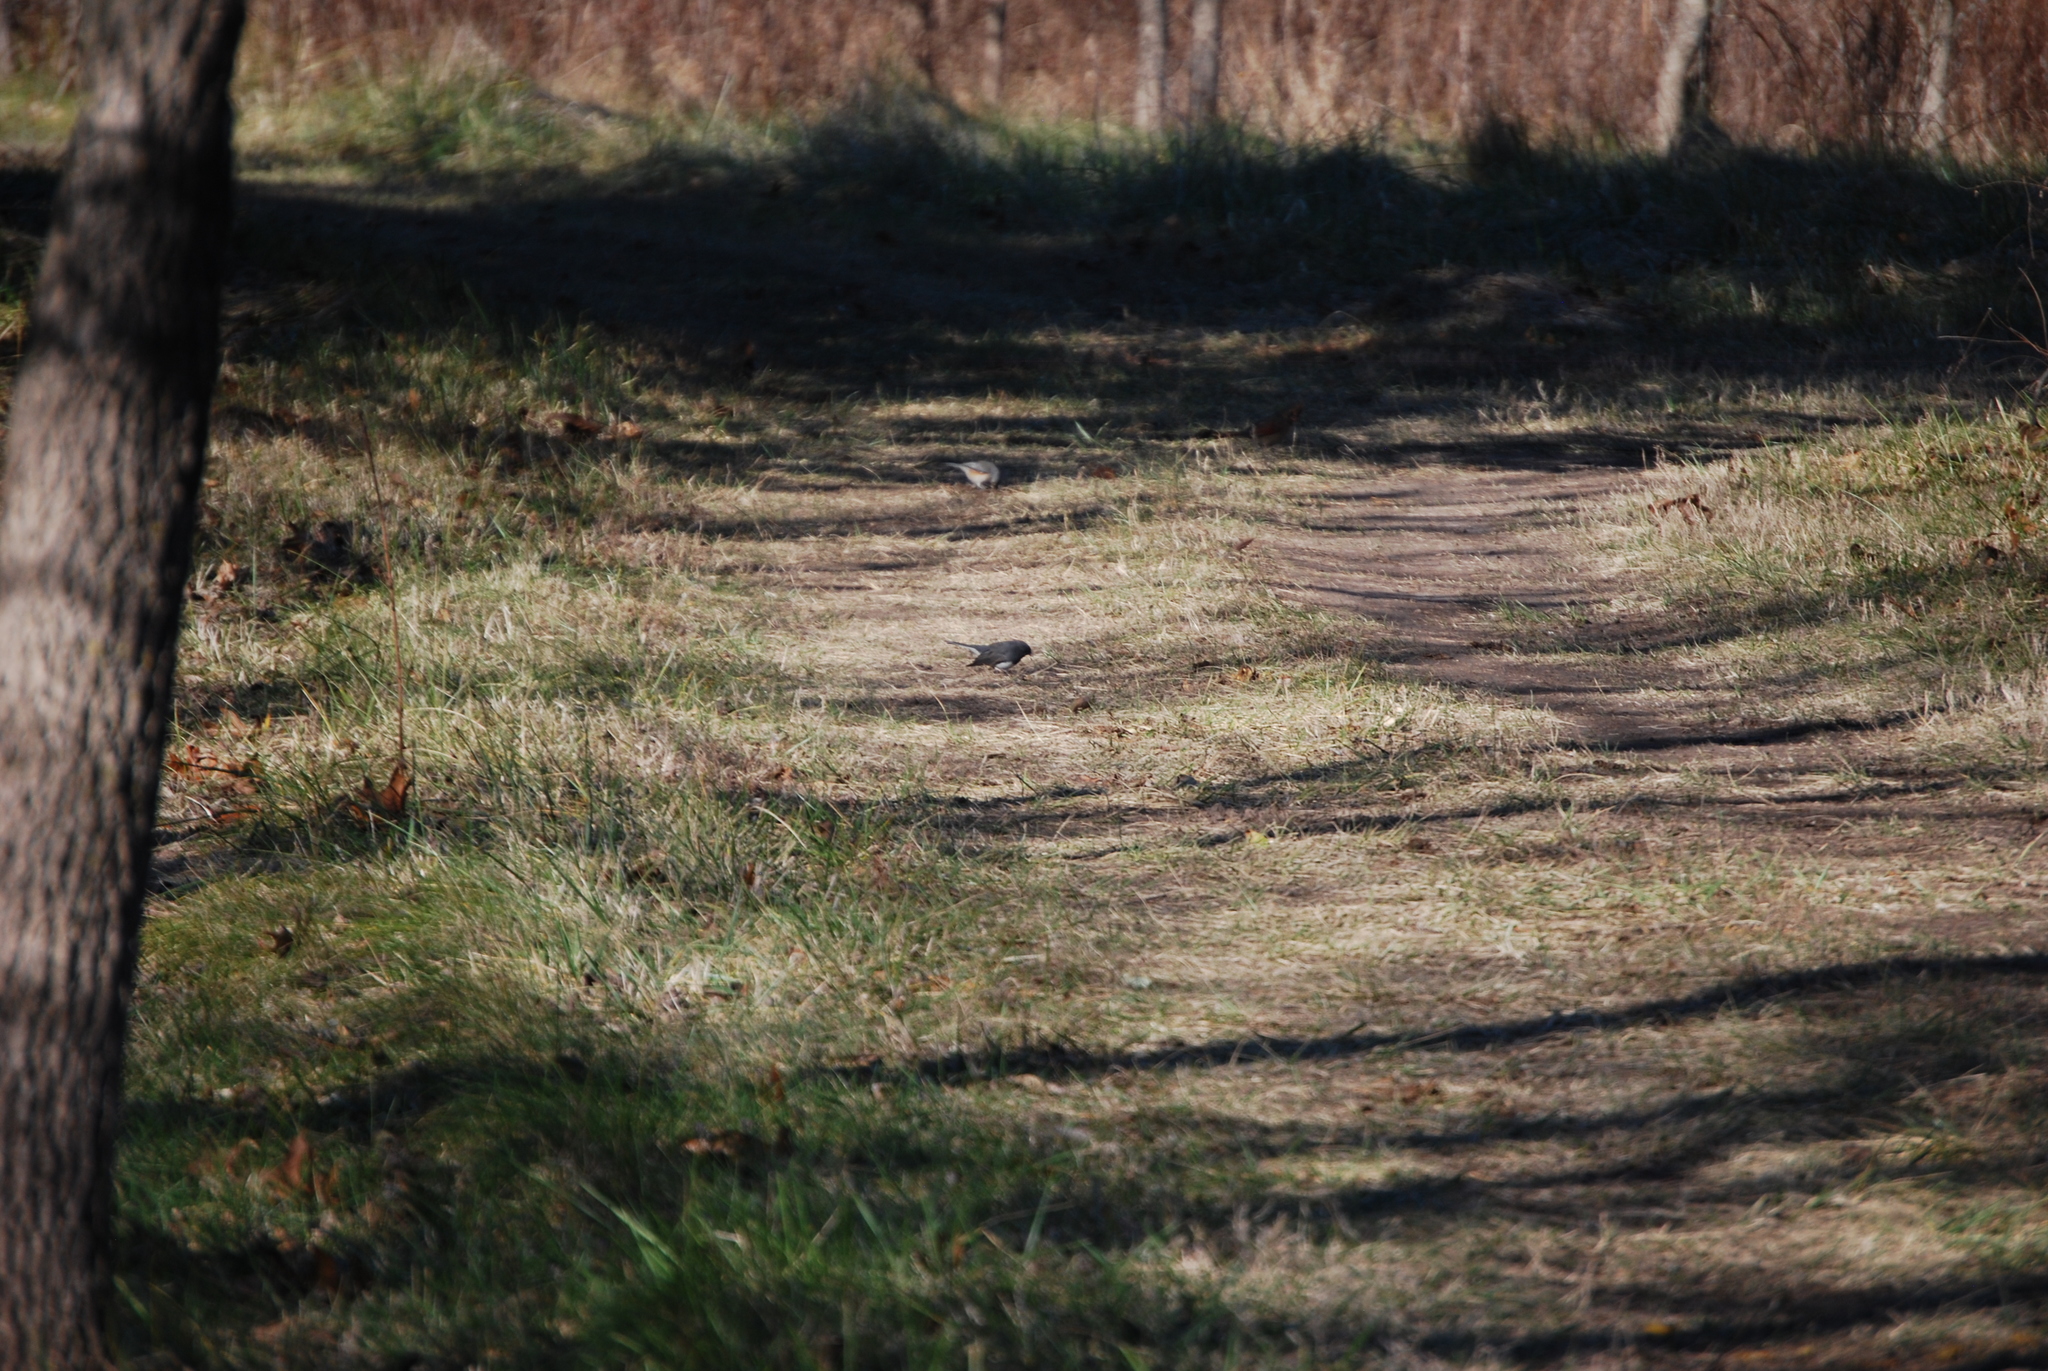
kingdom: Animalia
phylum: Chordata
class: Aves
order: Passeriformes
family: Passerellidae
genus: Junco
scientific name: Junco hyemalis
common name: Dark-eyed junco
